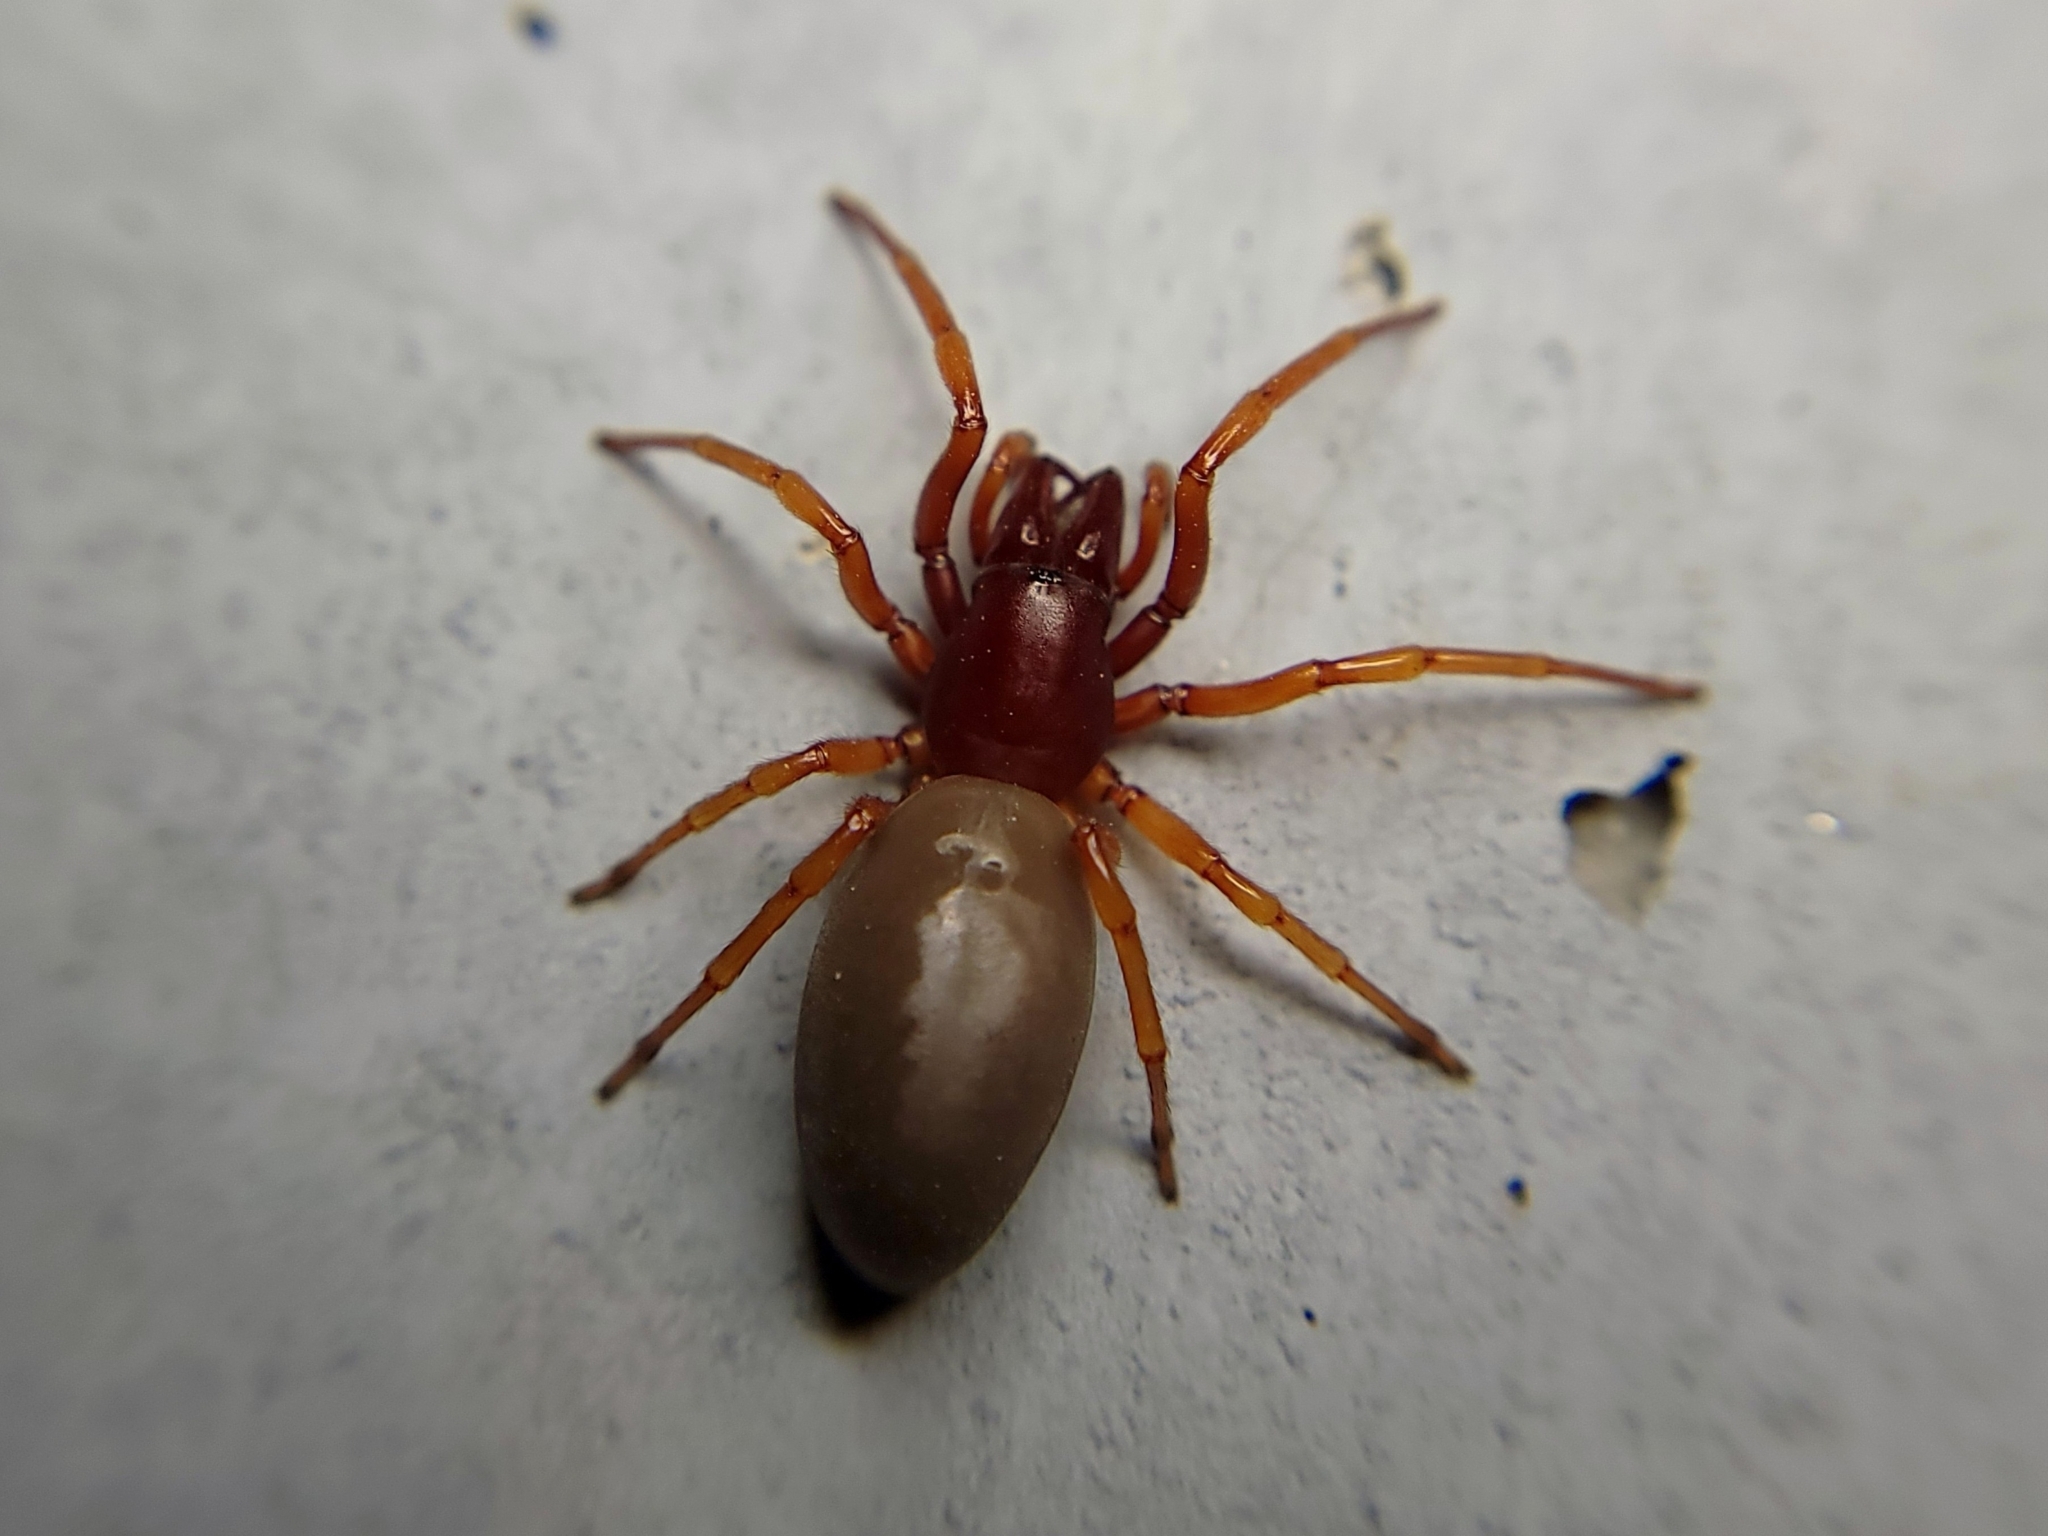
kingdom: Animalia
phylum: Arthropoda
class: Arachnida
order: Araneae
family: Dysderidae
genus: Dysdera
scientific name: Dysdera crocata
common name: Woodlouse spider
